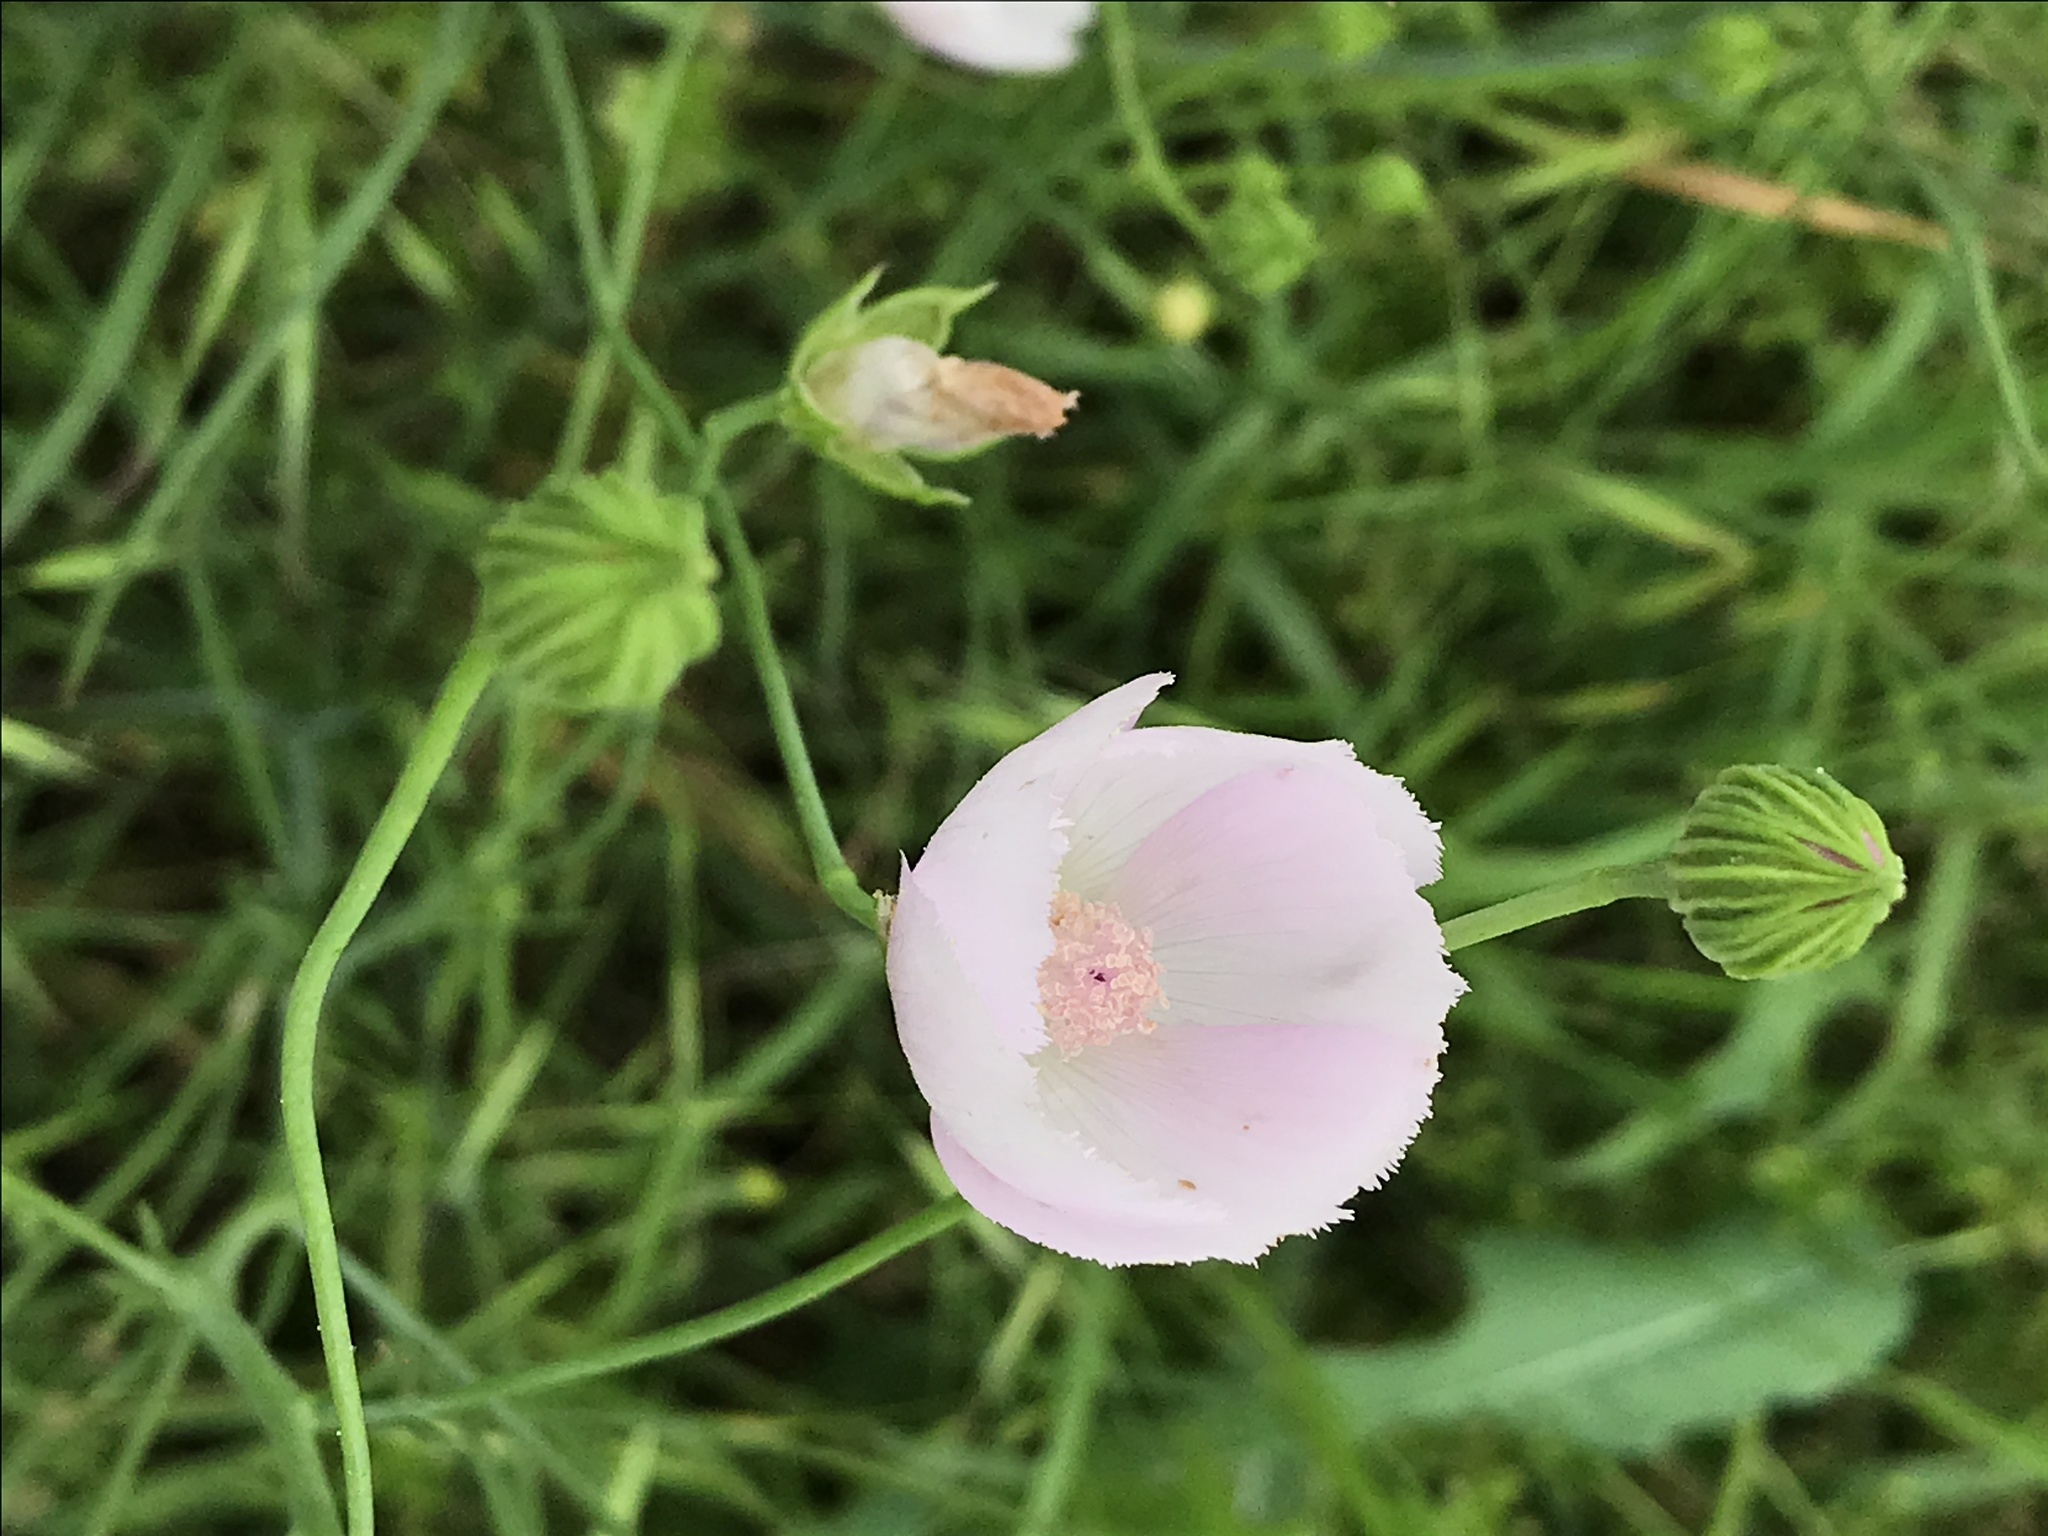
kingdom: Plantae
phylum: Tracheophyta
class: Magnoliopsida
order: Malvales
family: Malvaceae
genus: Callirhoe
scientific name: Callirhoe pedata
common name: Finger poppy-mallow
